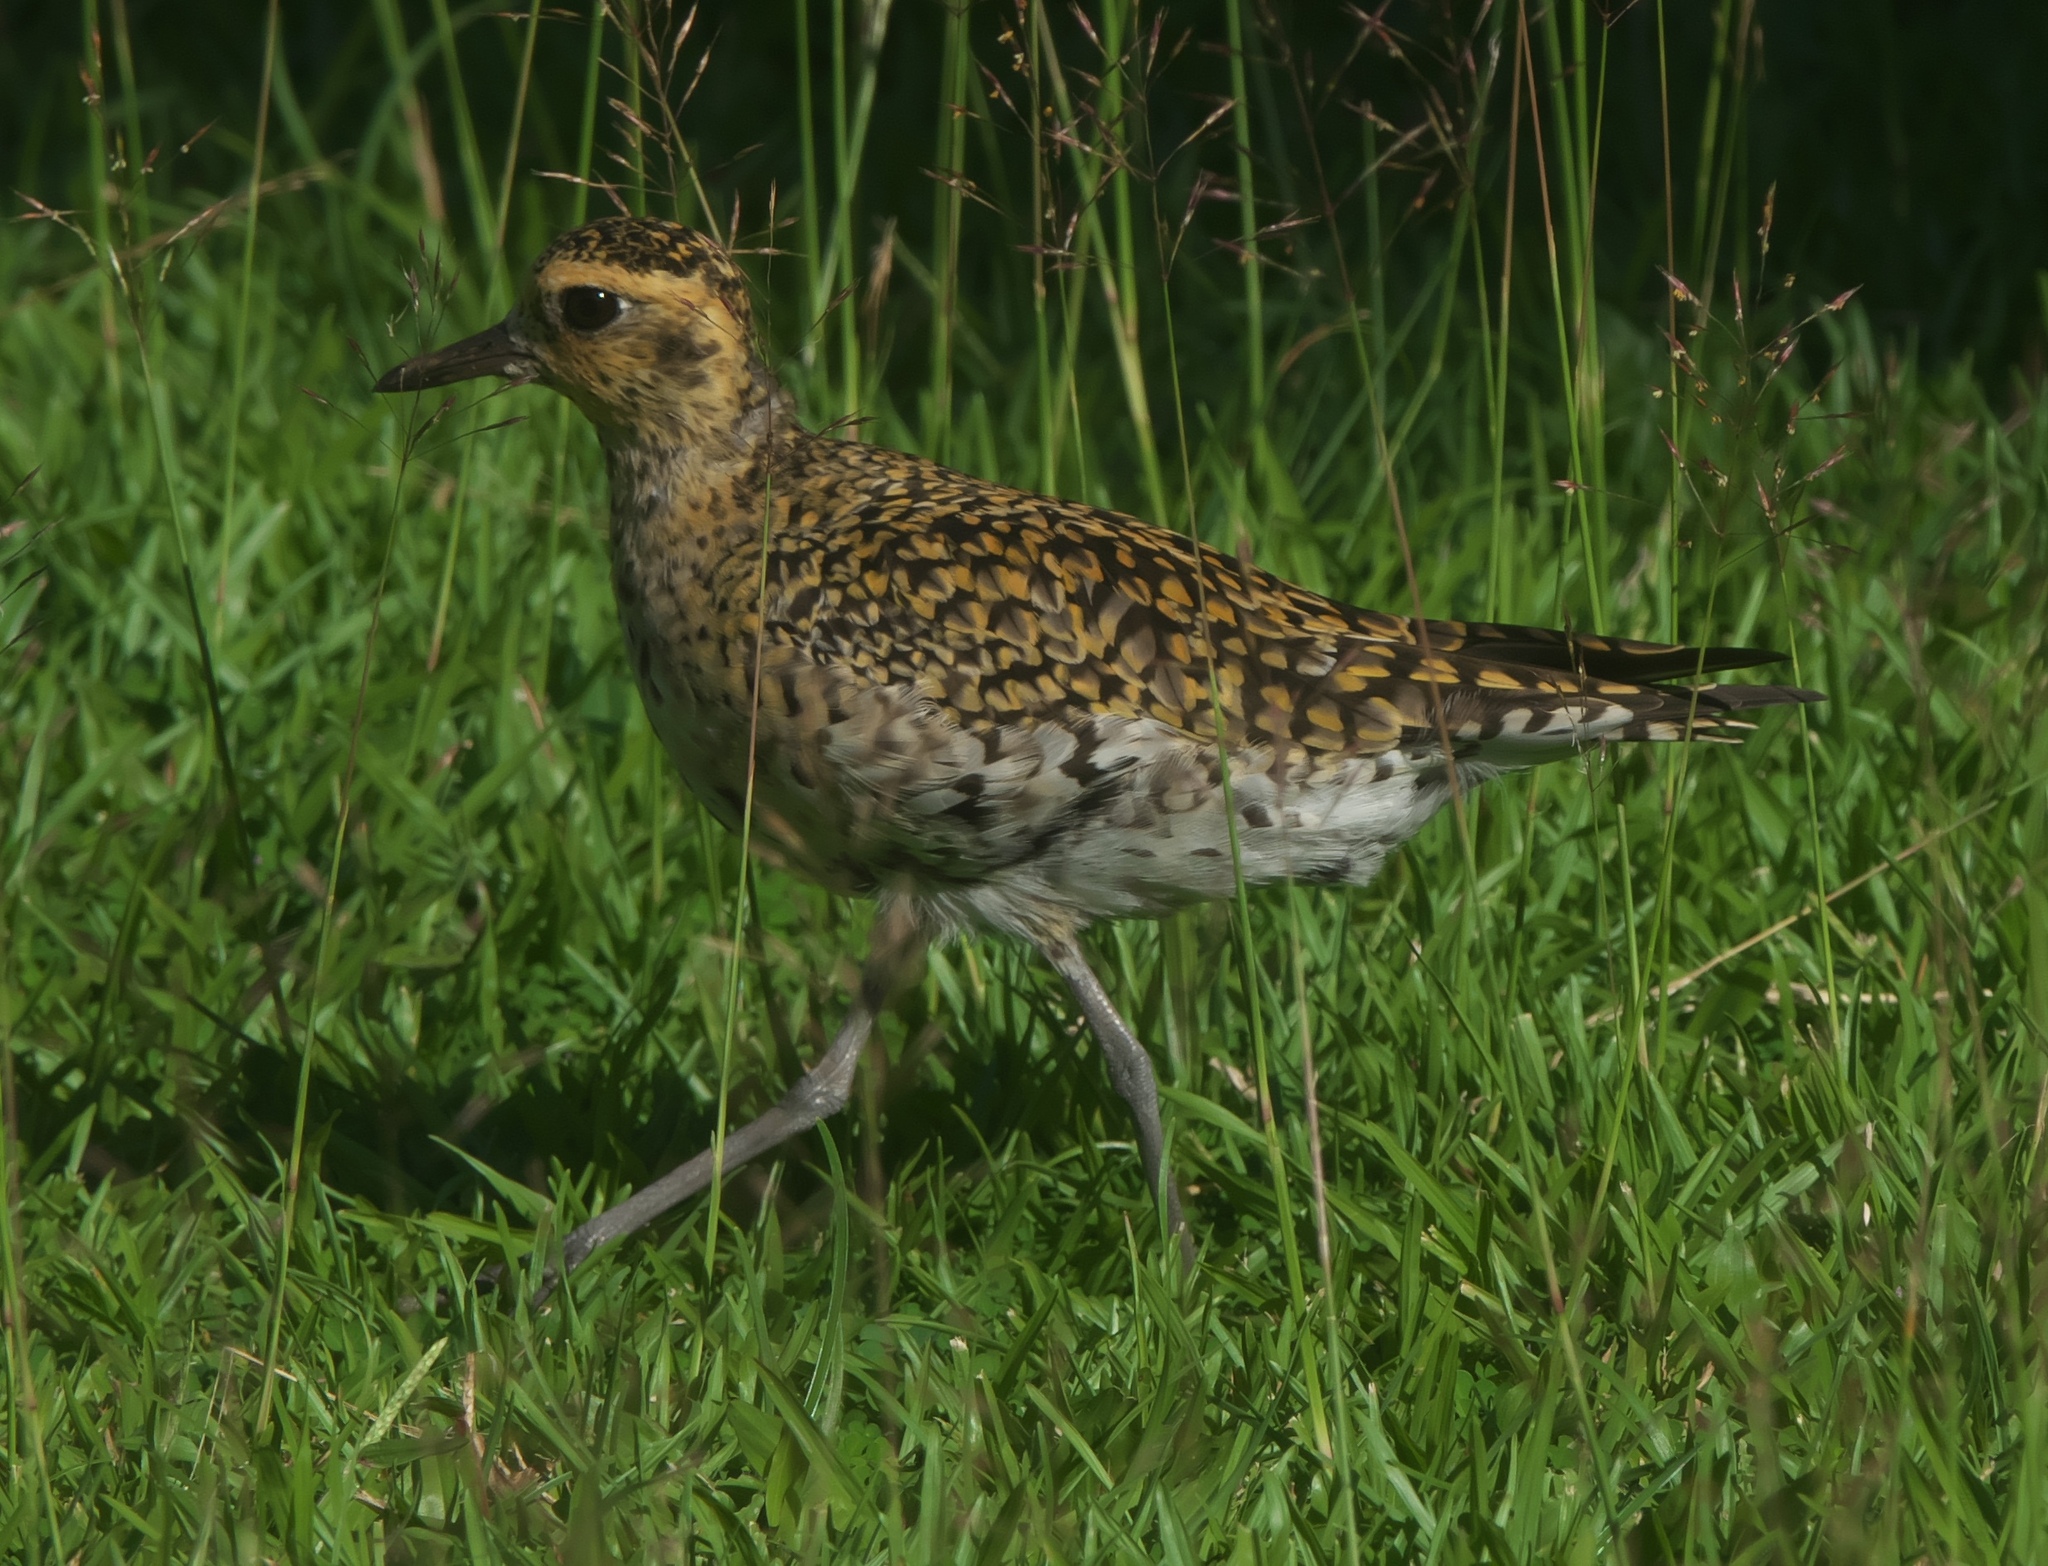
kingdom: Animalia
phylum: Chordata
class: Aves
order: Charadriiformes
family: Charadriidae
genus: Pluvialis
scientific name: Pluvialis fulva
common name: Pacific golden plover
